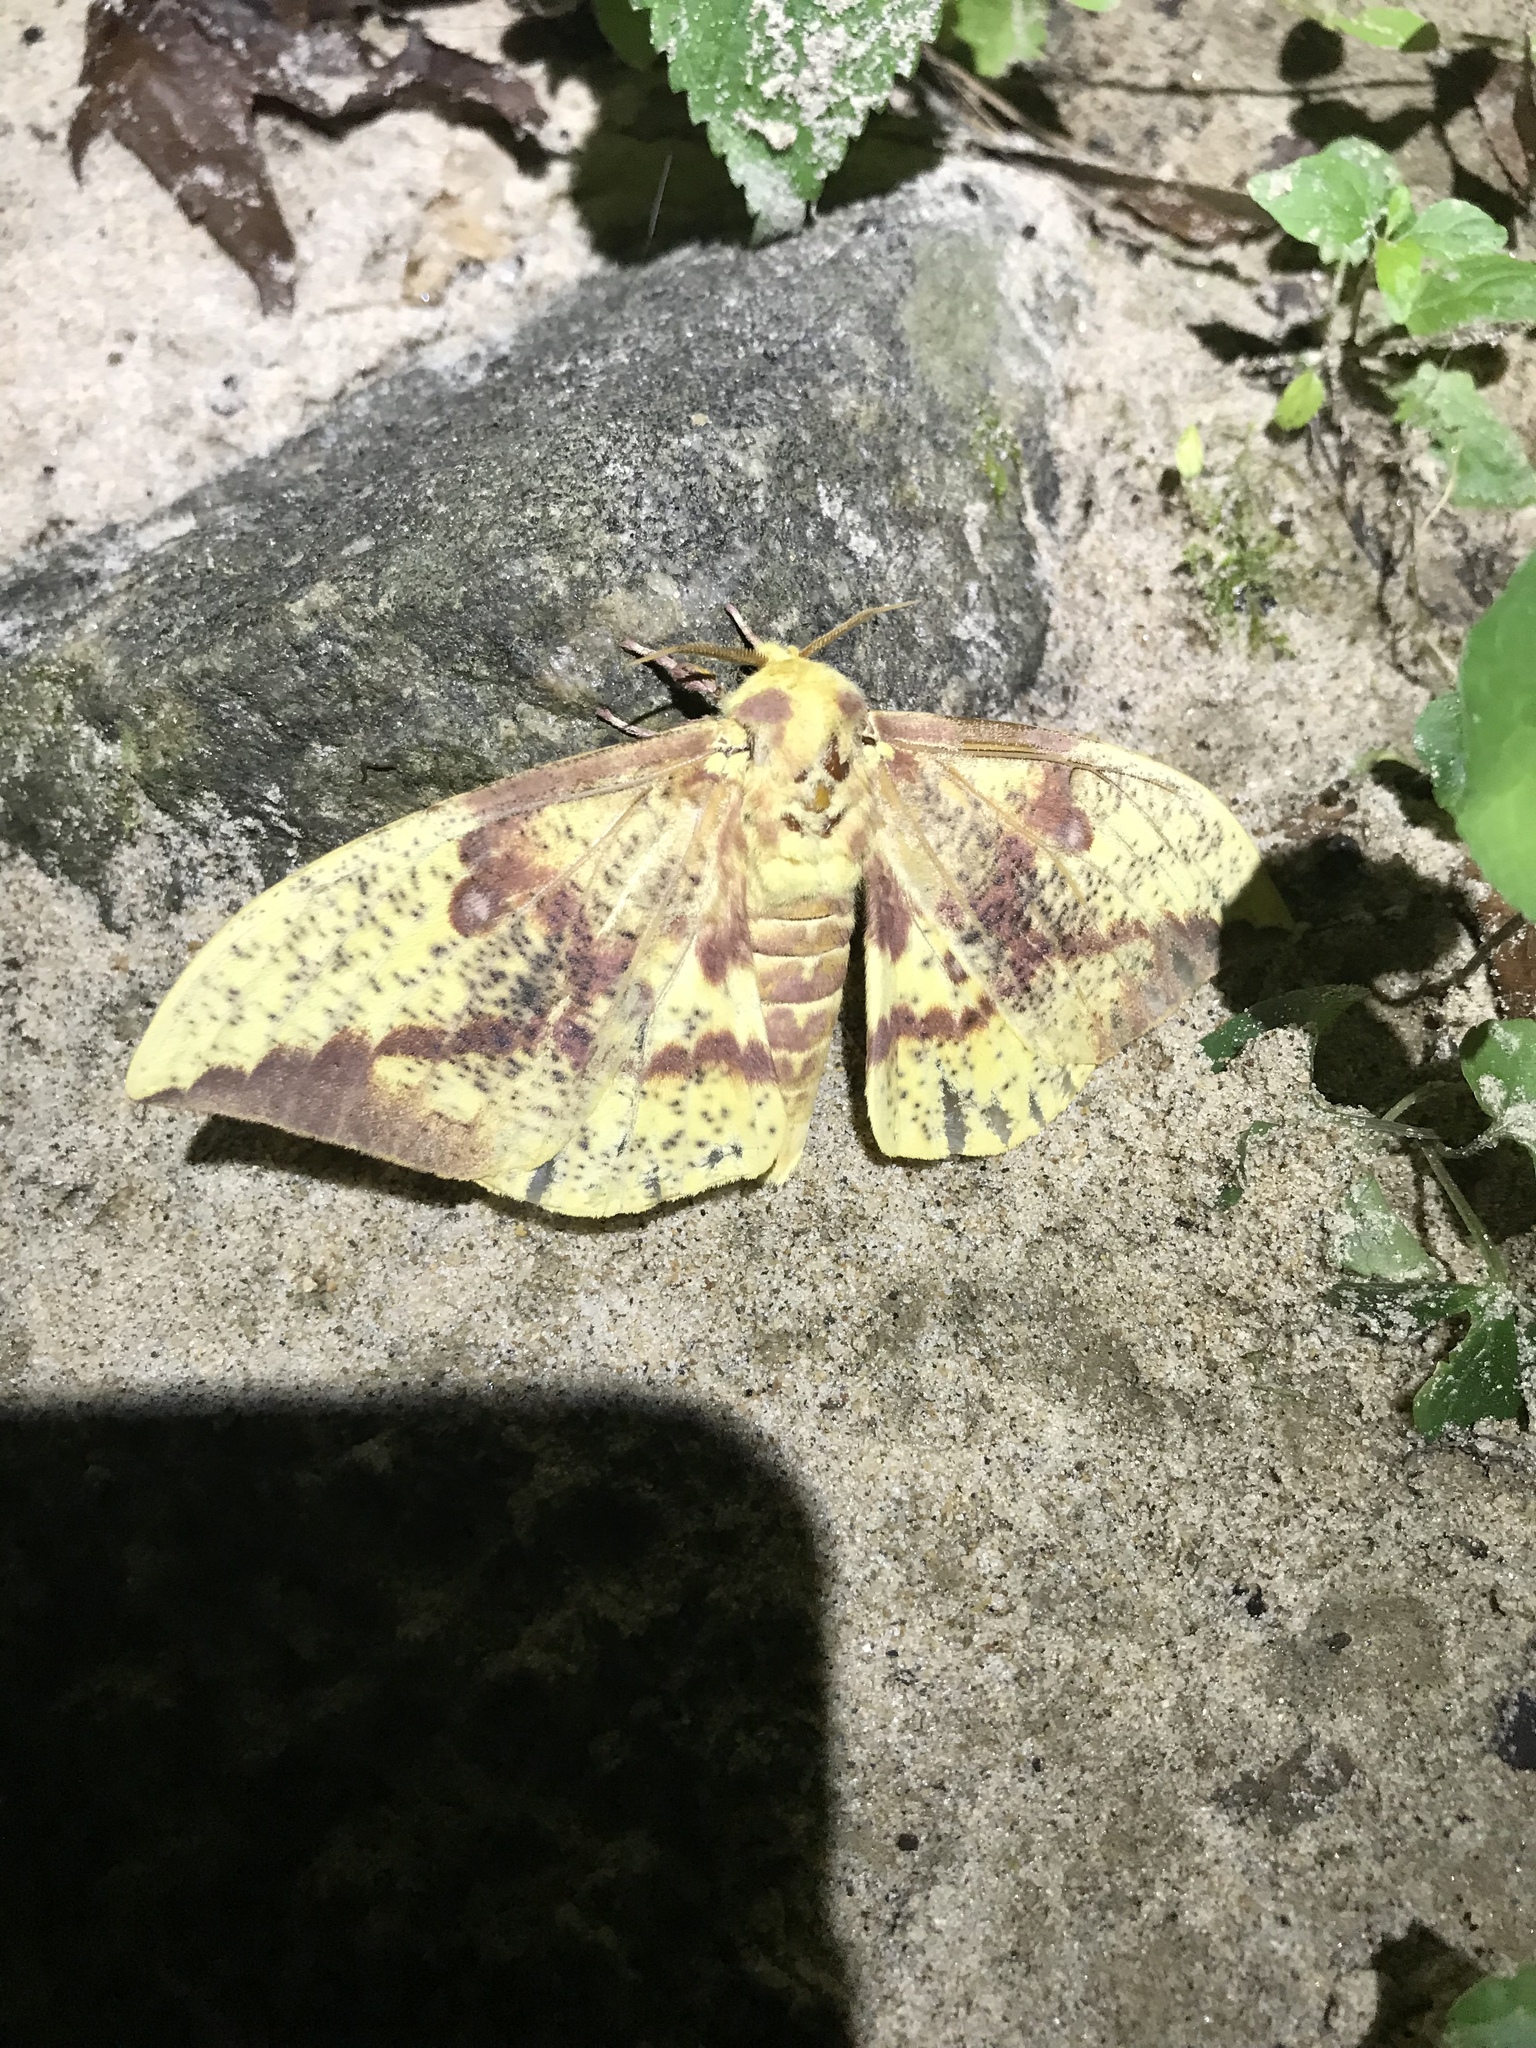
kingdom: Animalia
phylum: Arthropoda
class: Insecta
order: Lepidoptera
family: Saturniidae
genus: Eacles
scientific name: Eacles imperialis
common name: Imperial moth
